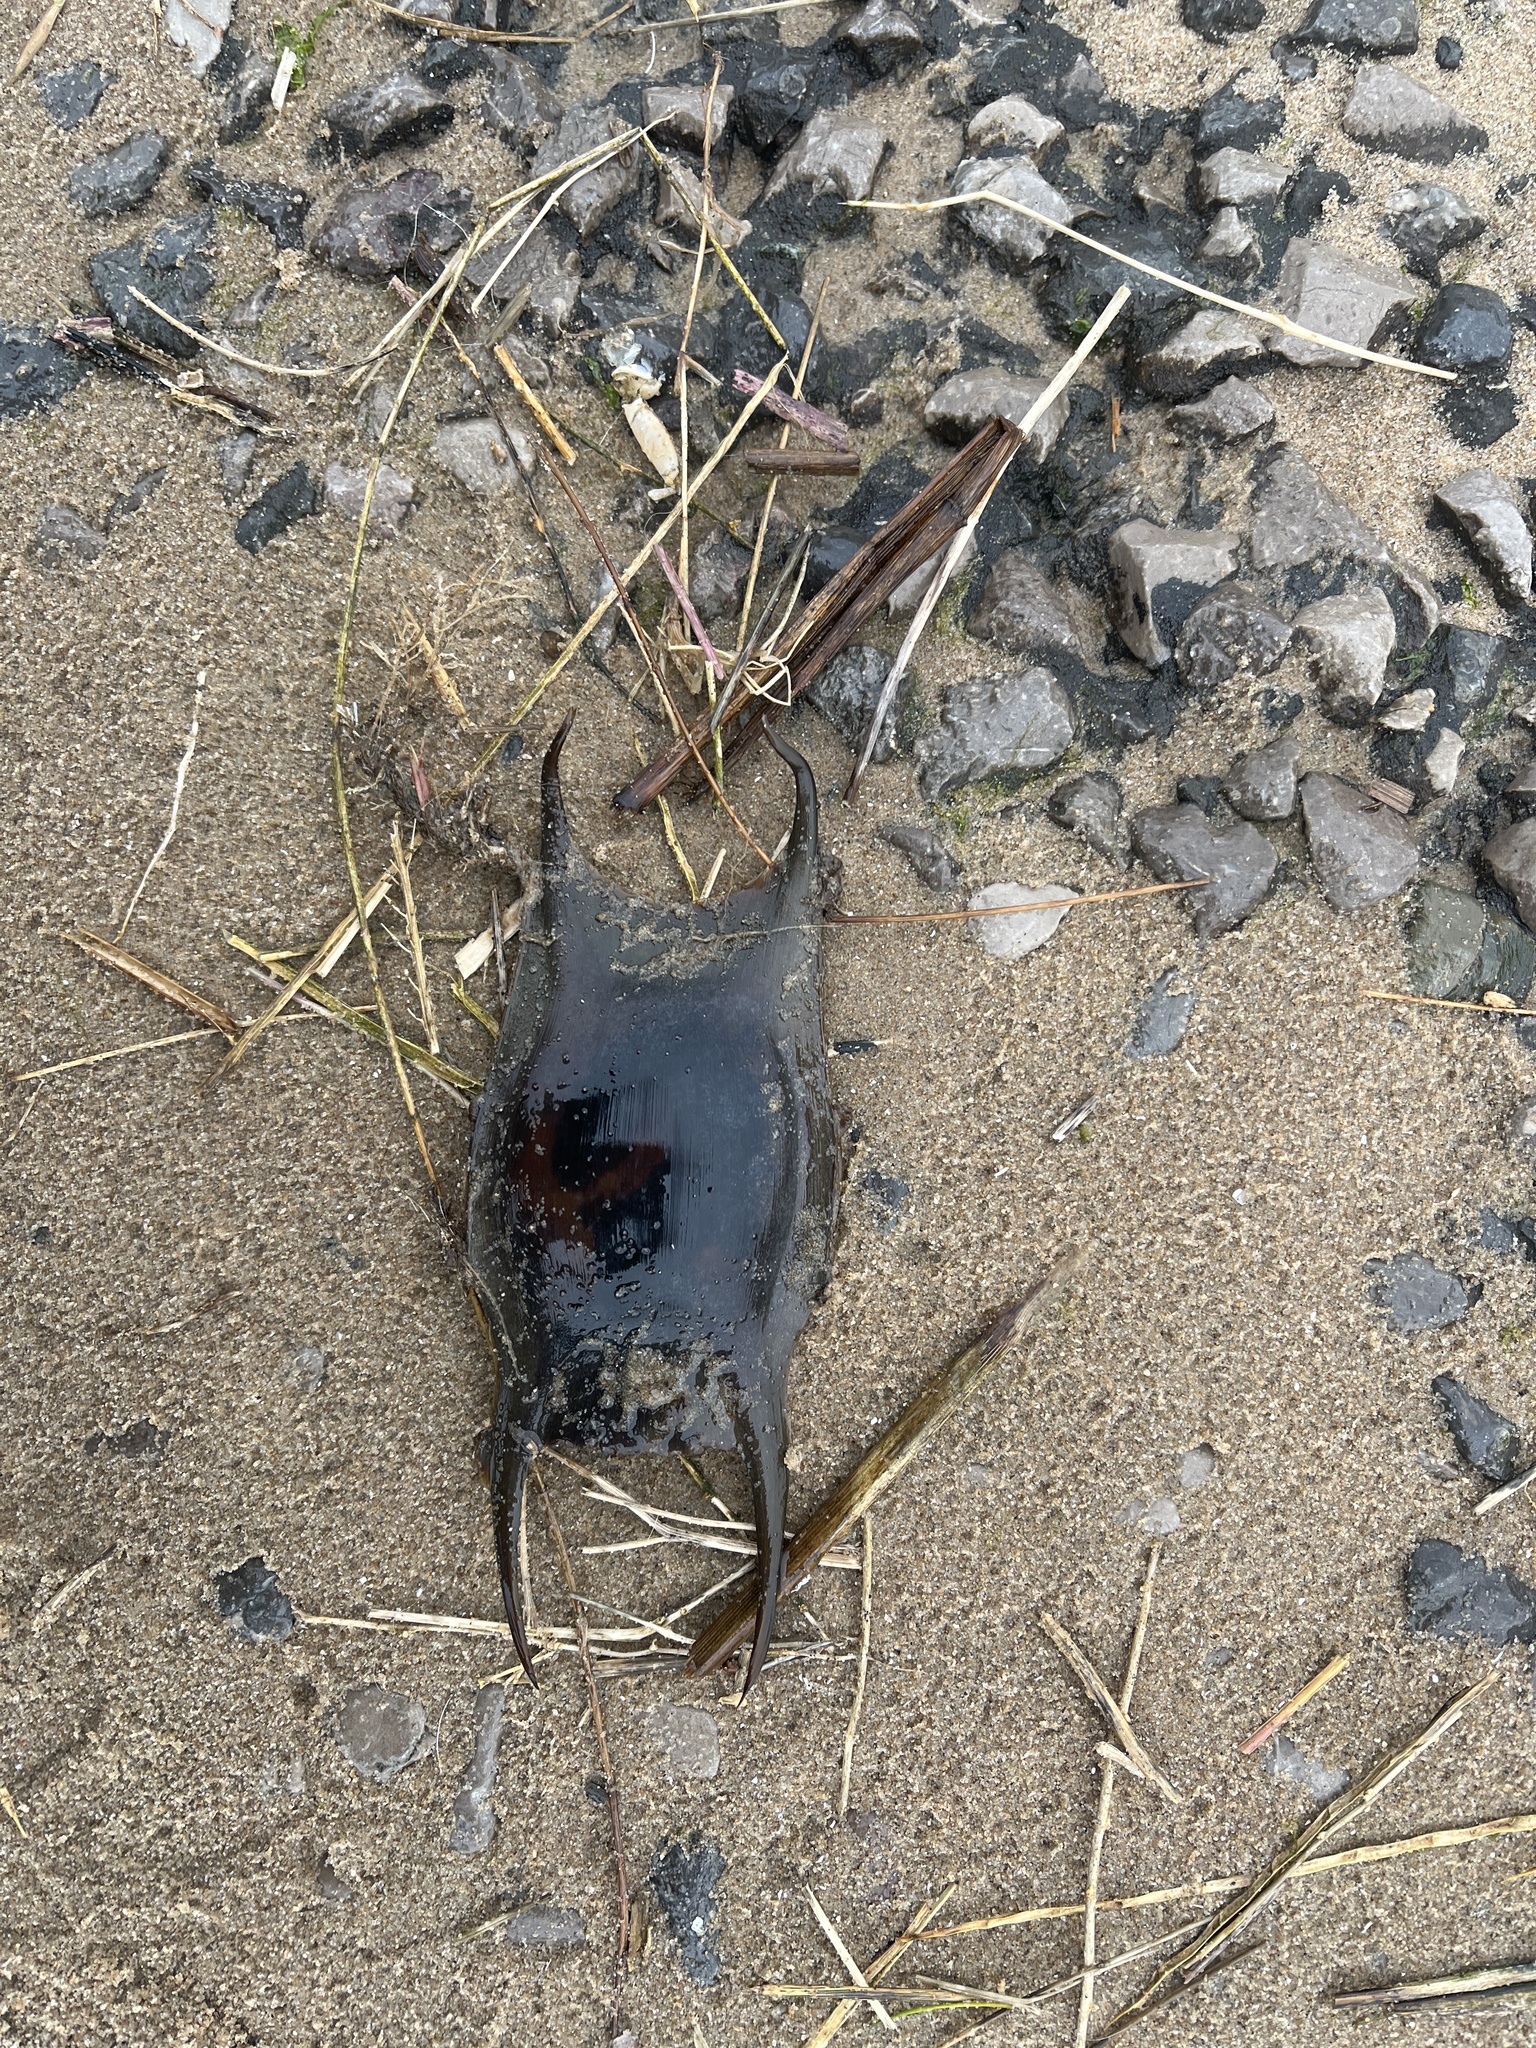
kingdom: Animalia
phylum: Chordata
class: Elasmobranchii
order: Rajiformes
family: Rajidae
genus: Raja
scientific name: Raja clavata
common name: Thornback ray
